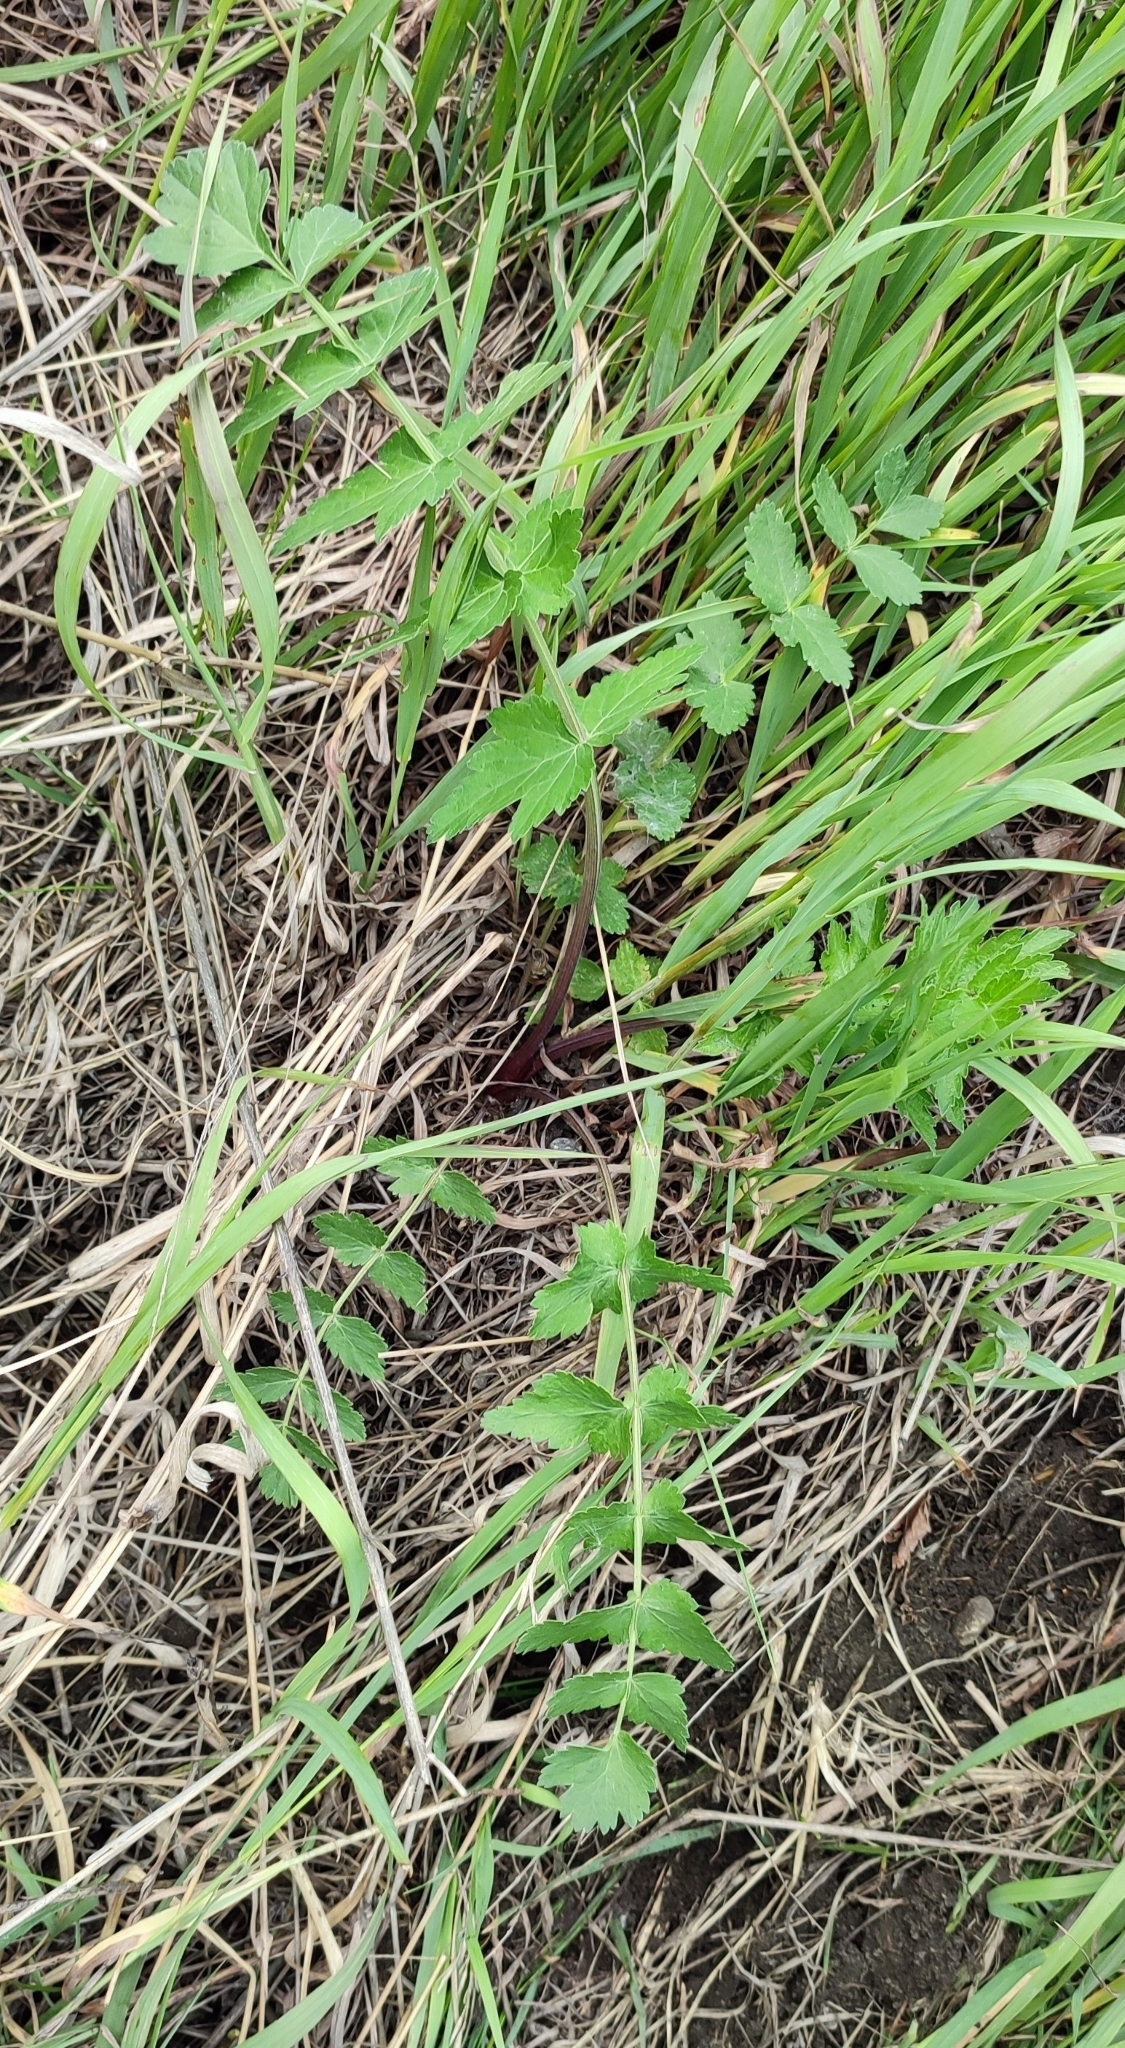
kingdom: Plantae
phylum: Tracheophyta
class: Magnoliopsida
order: Apiales
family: Apiaceae
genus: Pimpinella
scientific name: Pimpinella saxifraga
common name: Burnet-saxifrage
